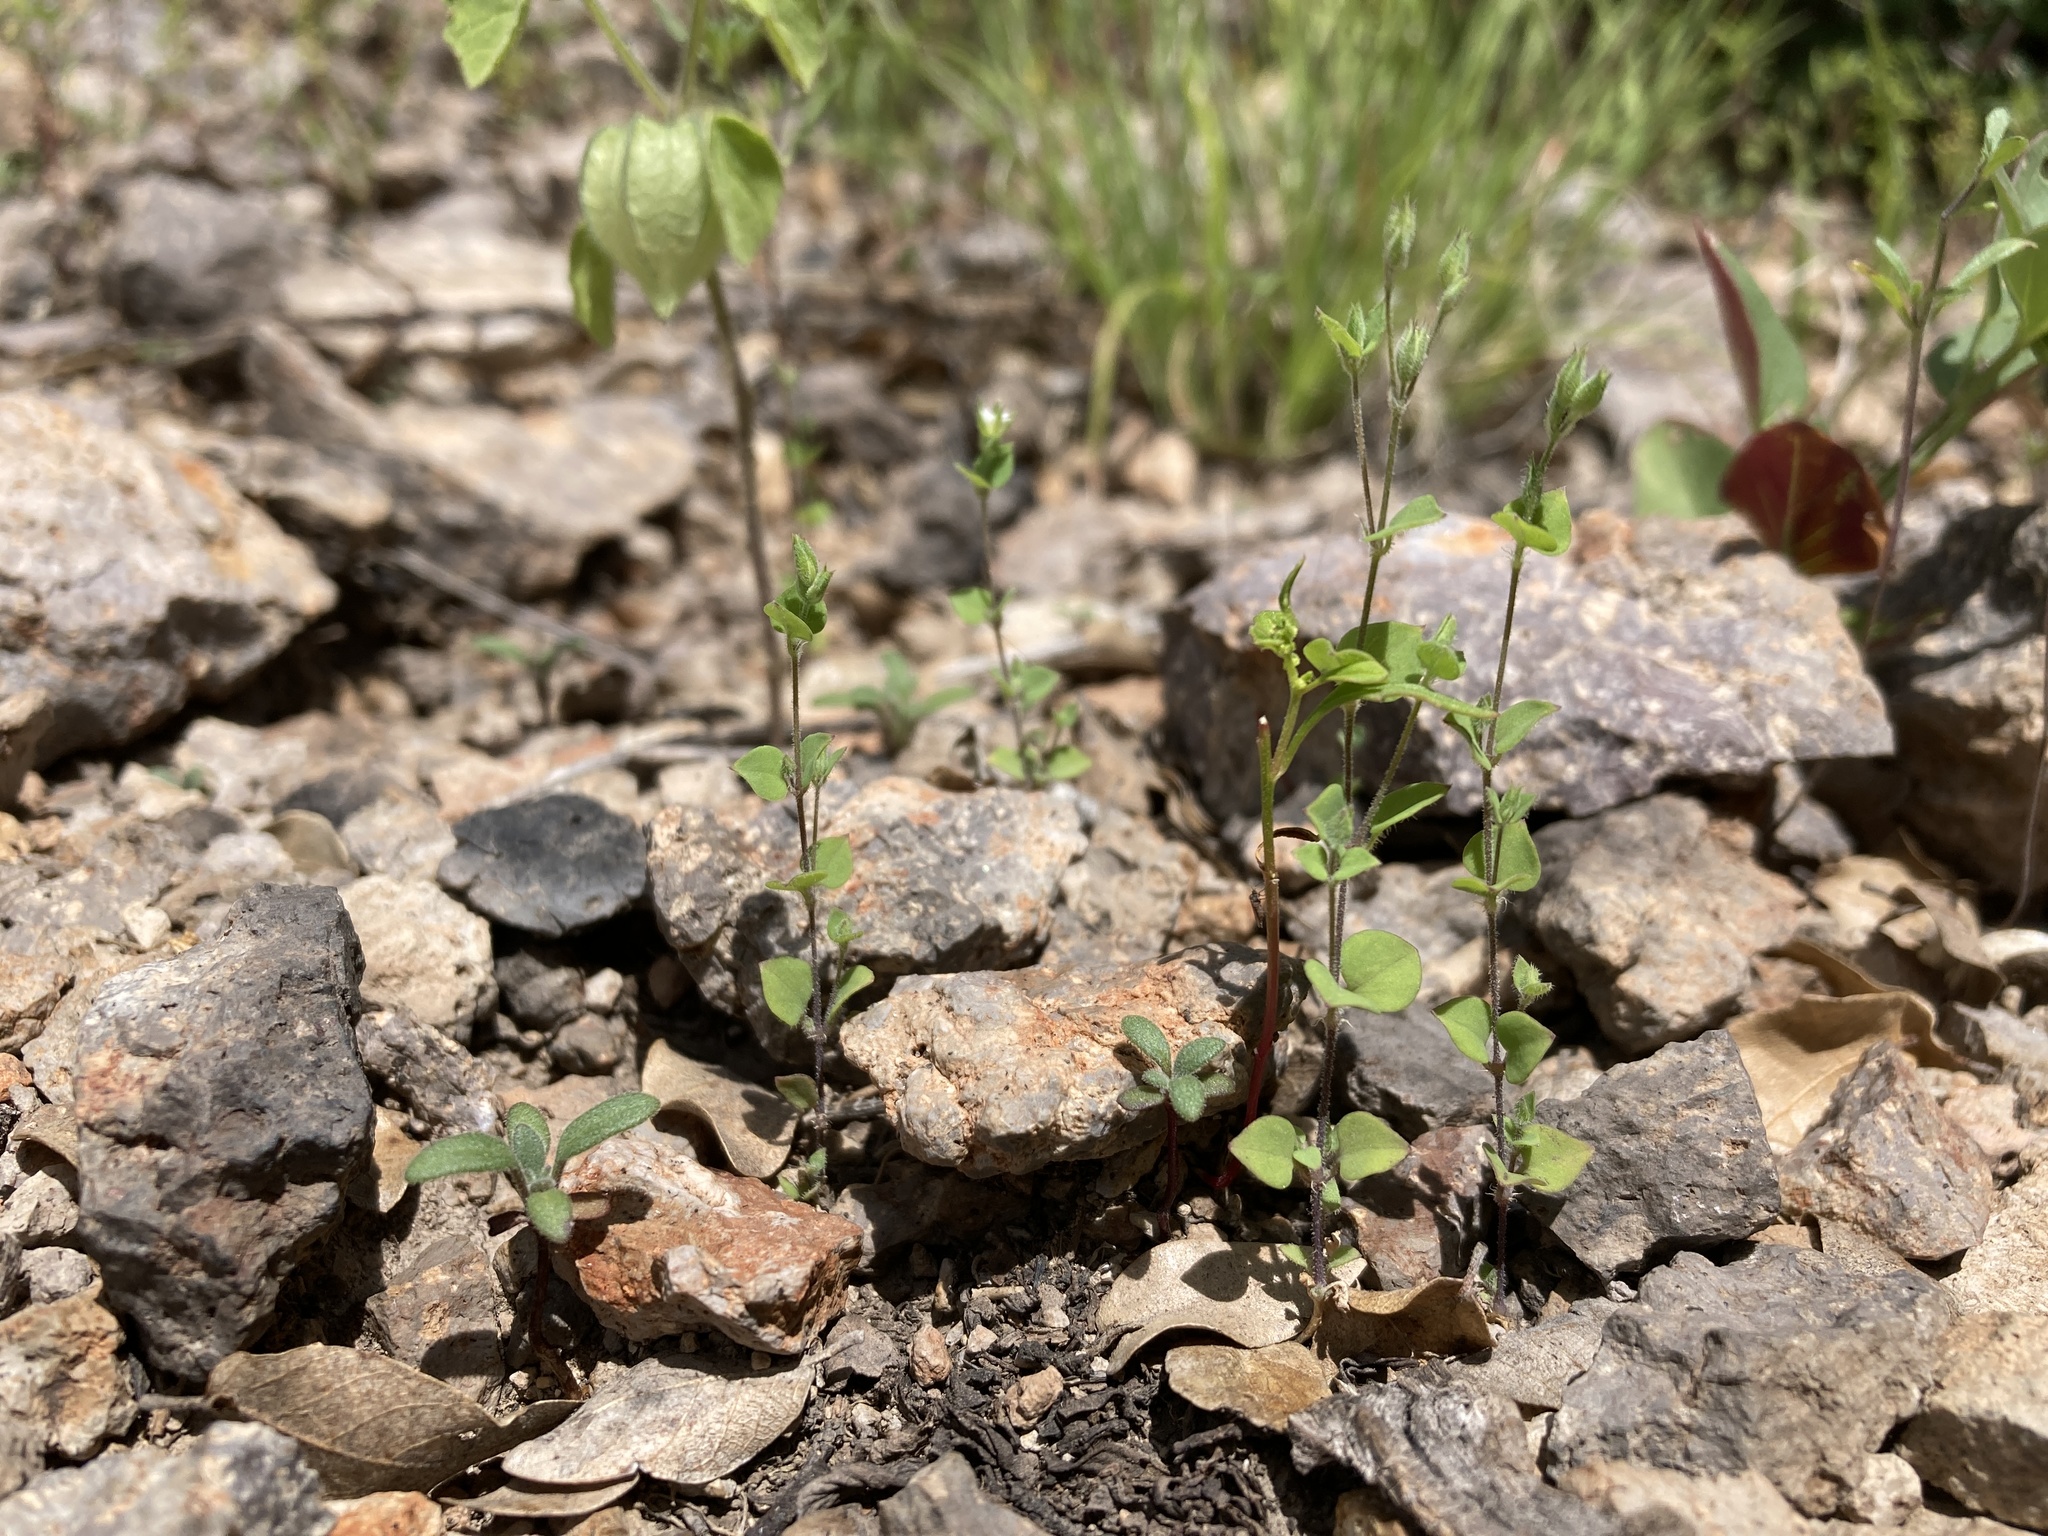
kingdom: Plantae
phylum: Tracheophyta
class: Magnoliopsida
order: Caryophyllales
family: Caryophyllaceae
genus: Drymaria
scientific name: Drymaria glandulosa
